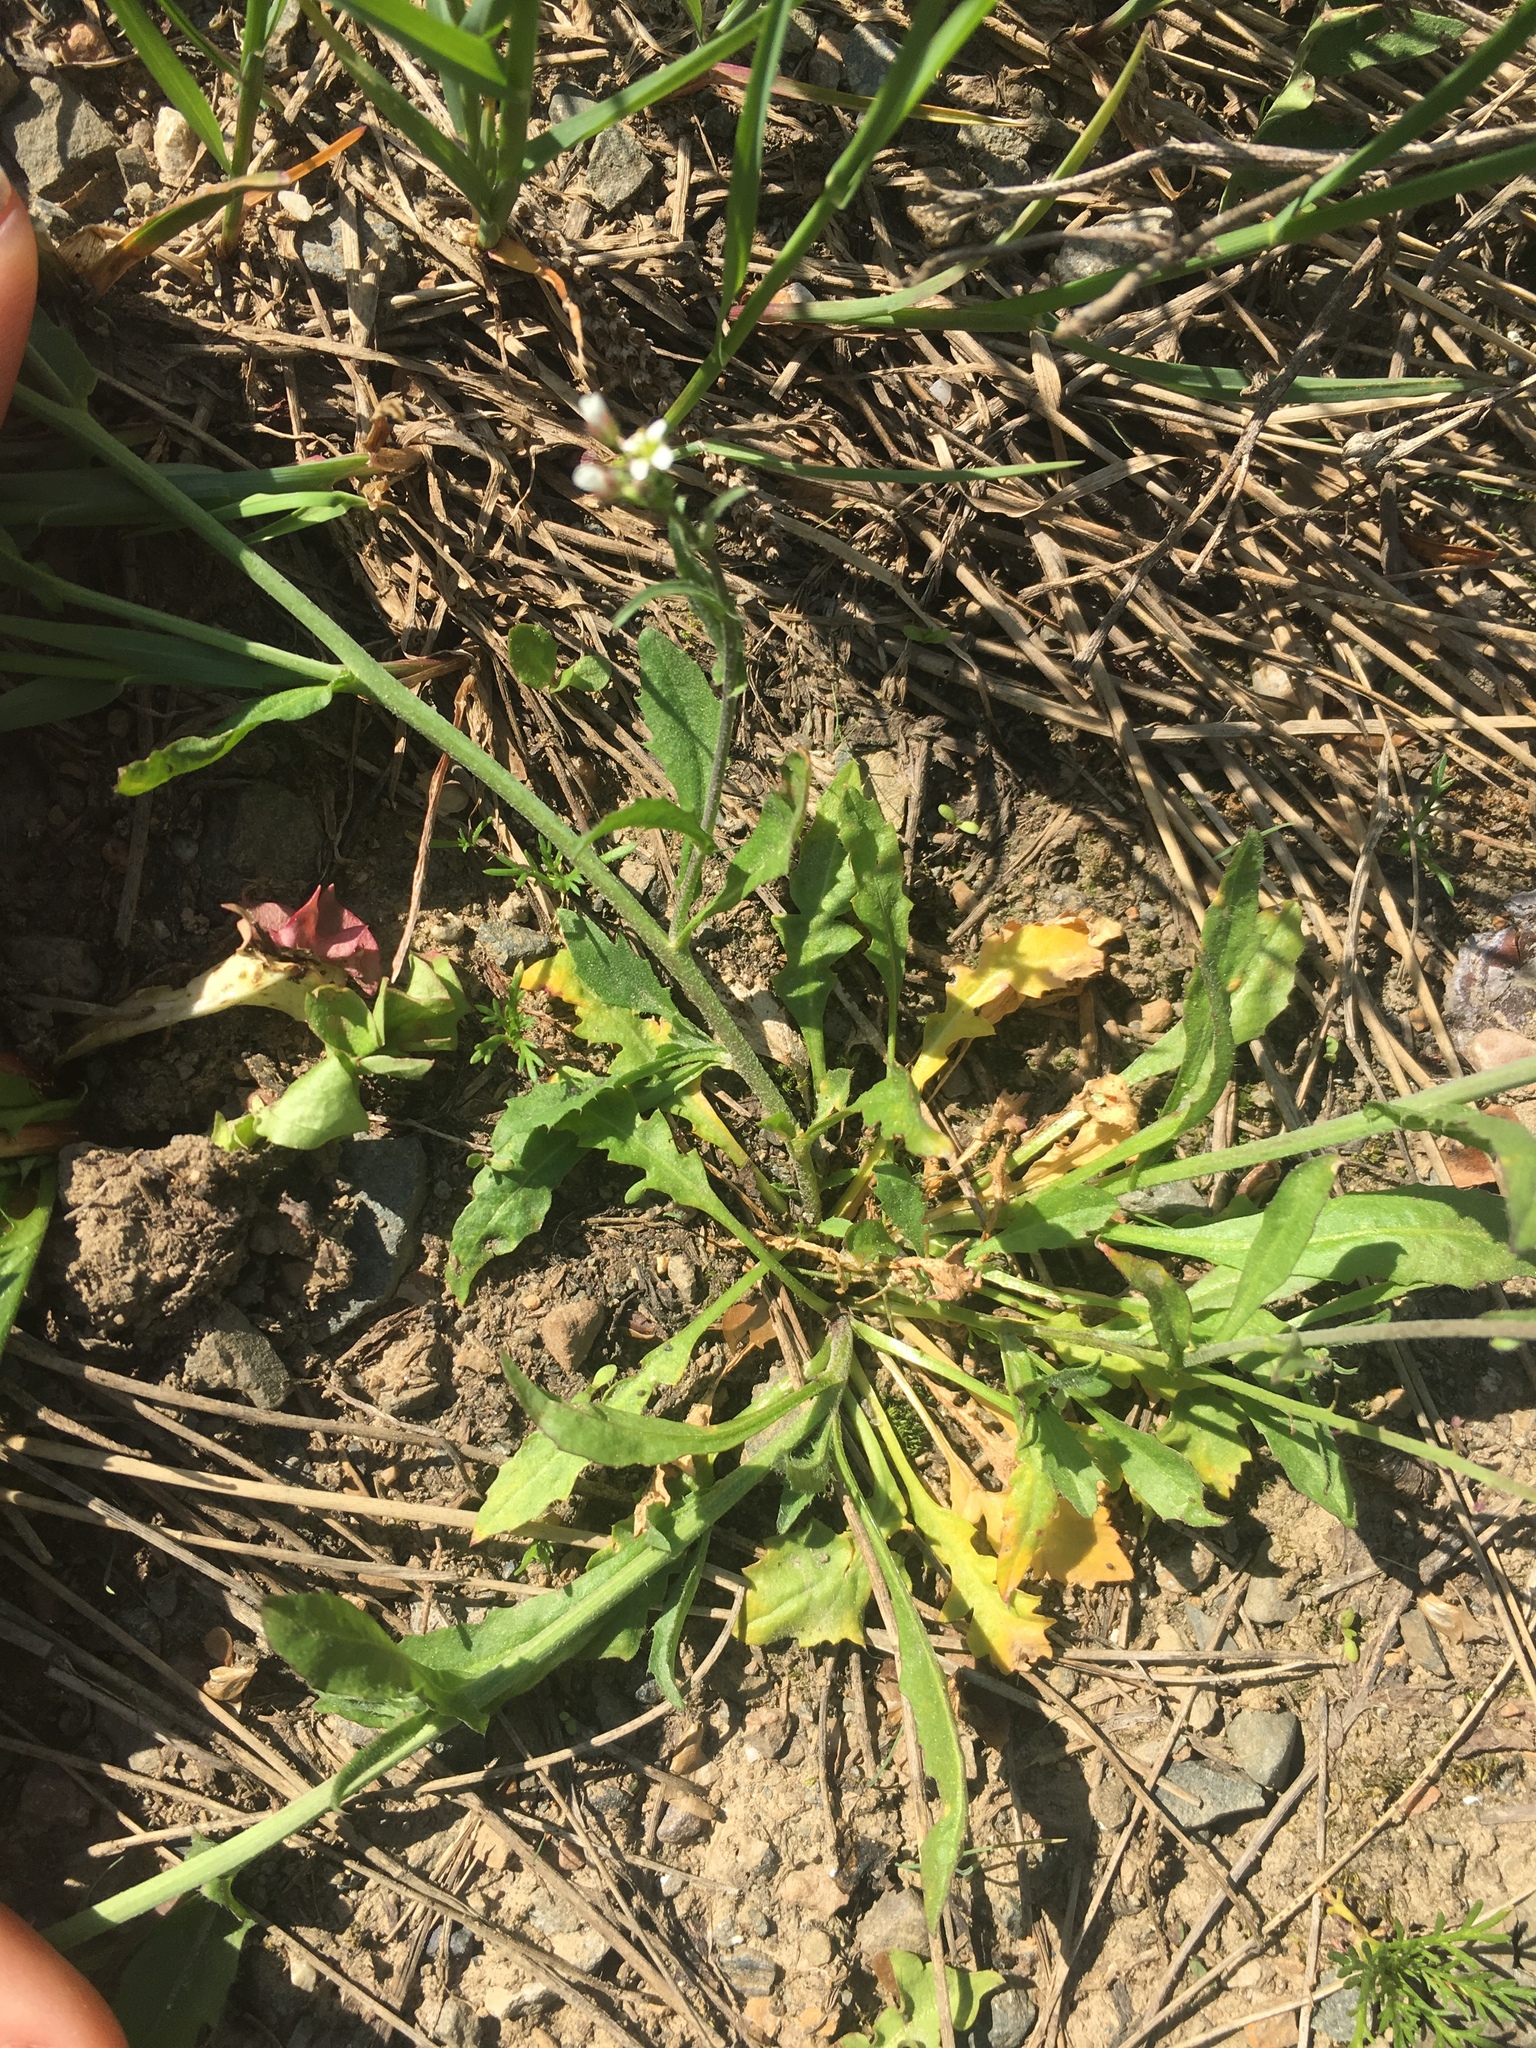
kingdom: Plantae
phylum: Tracheophyta
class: Magnoliopsida
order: Brassicales
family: Brassicaceae
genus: Capsella
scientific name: Capsella bursa-pastoris
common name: Shepherd's purse
